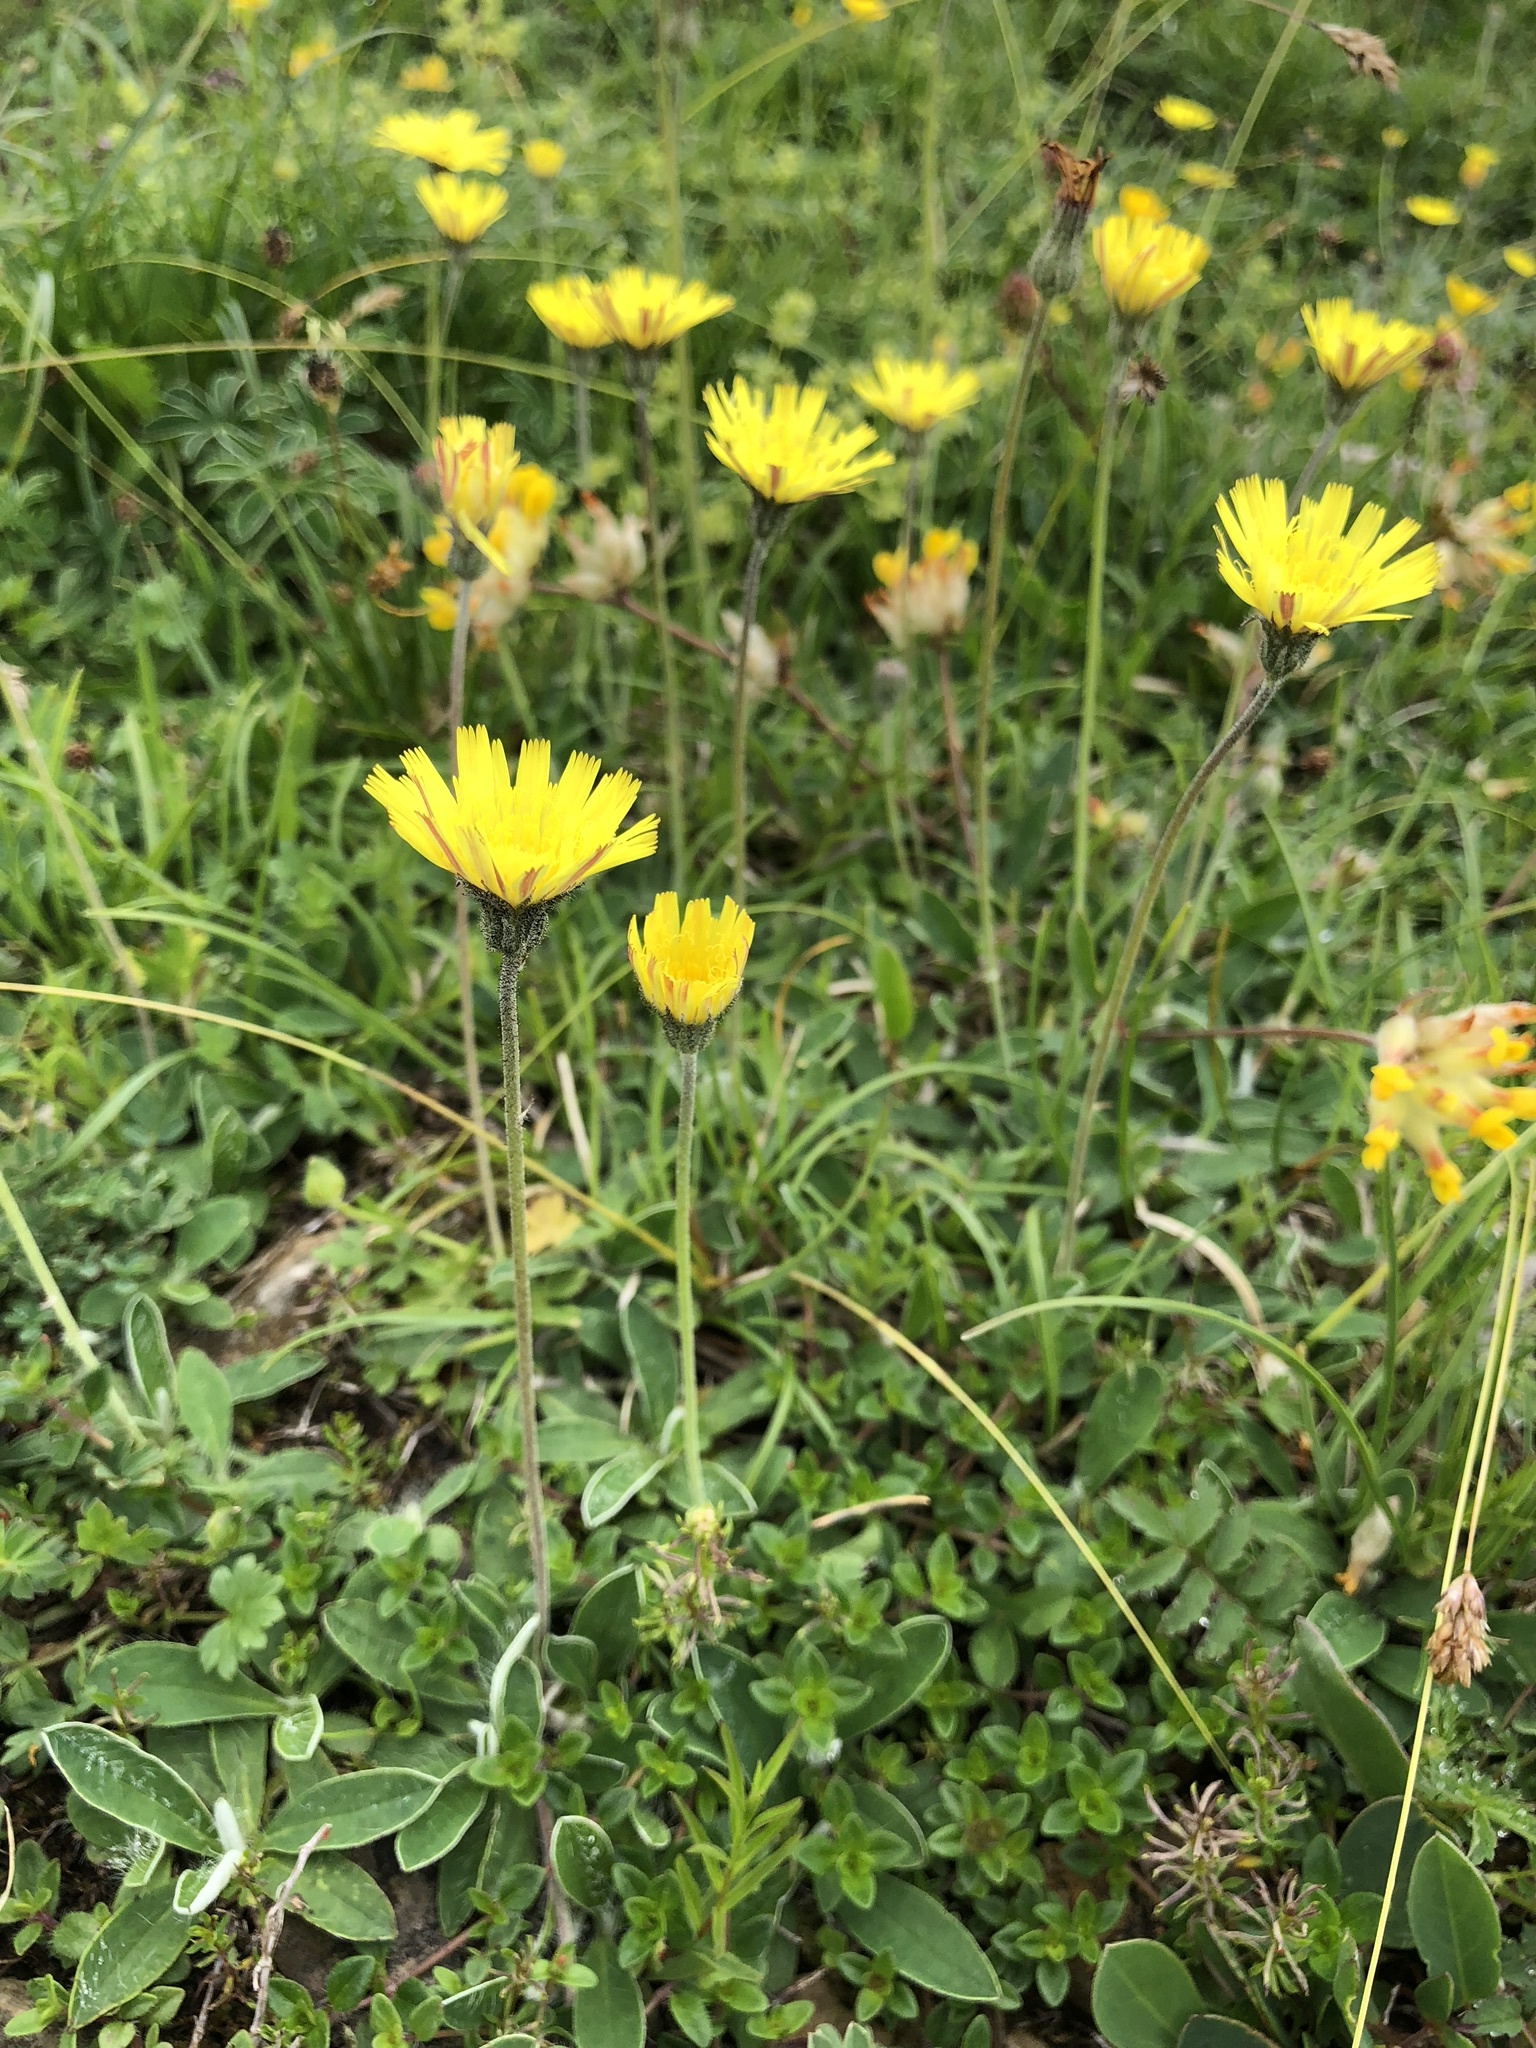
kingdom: Plantae
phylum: Tracheophyta
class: Magnoliopsida
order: Asterales
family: Asteraceae
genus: Pilosella
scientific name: Pilosella officinarum
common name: Mouse-ear hawkweed
